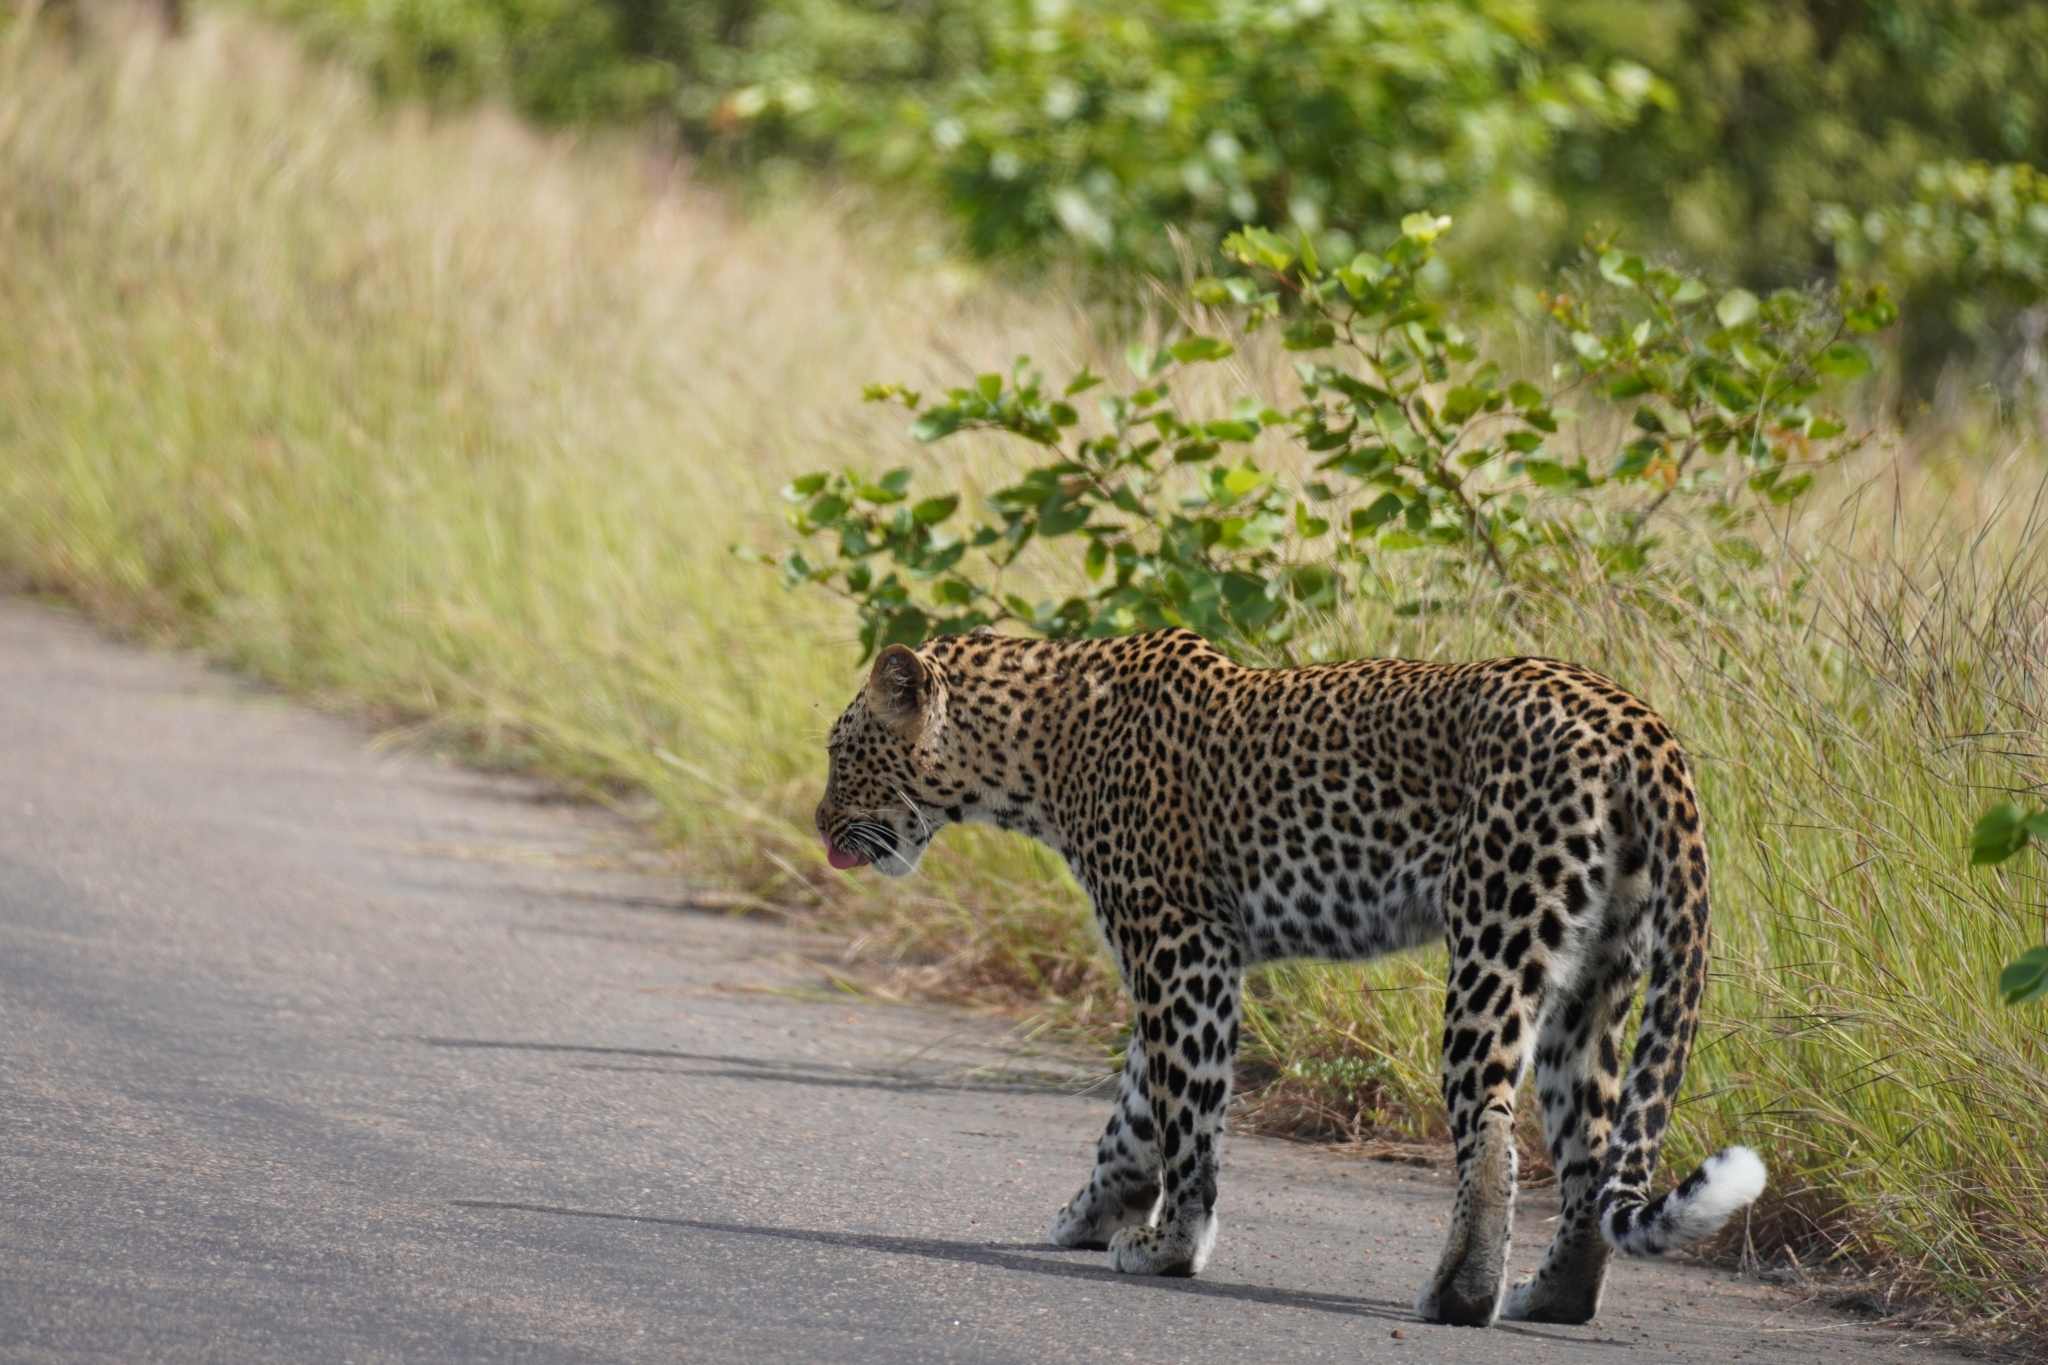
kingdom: Animalia
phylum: Chordata
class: Mammalia
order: Carnivora
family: Felidae
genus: Panthera
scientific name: Panthera pardus
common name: Leopard
